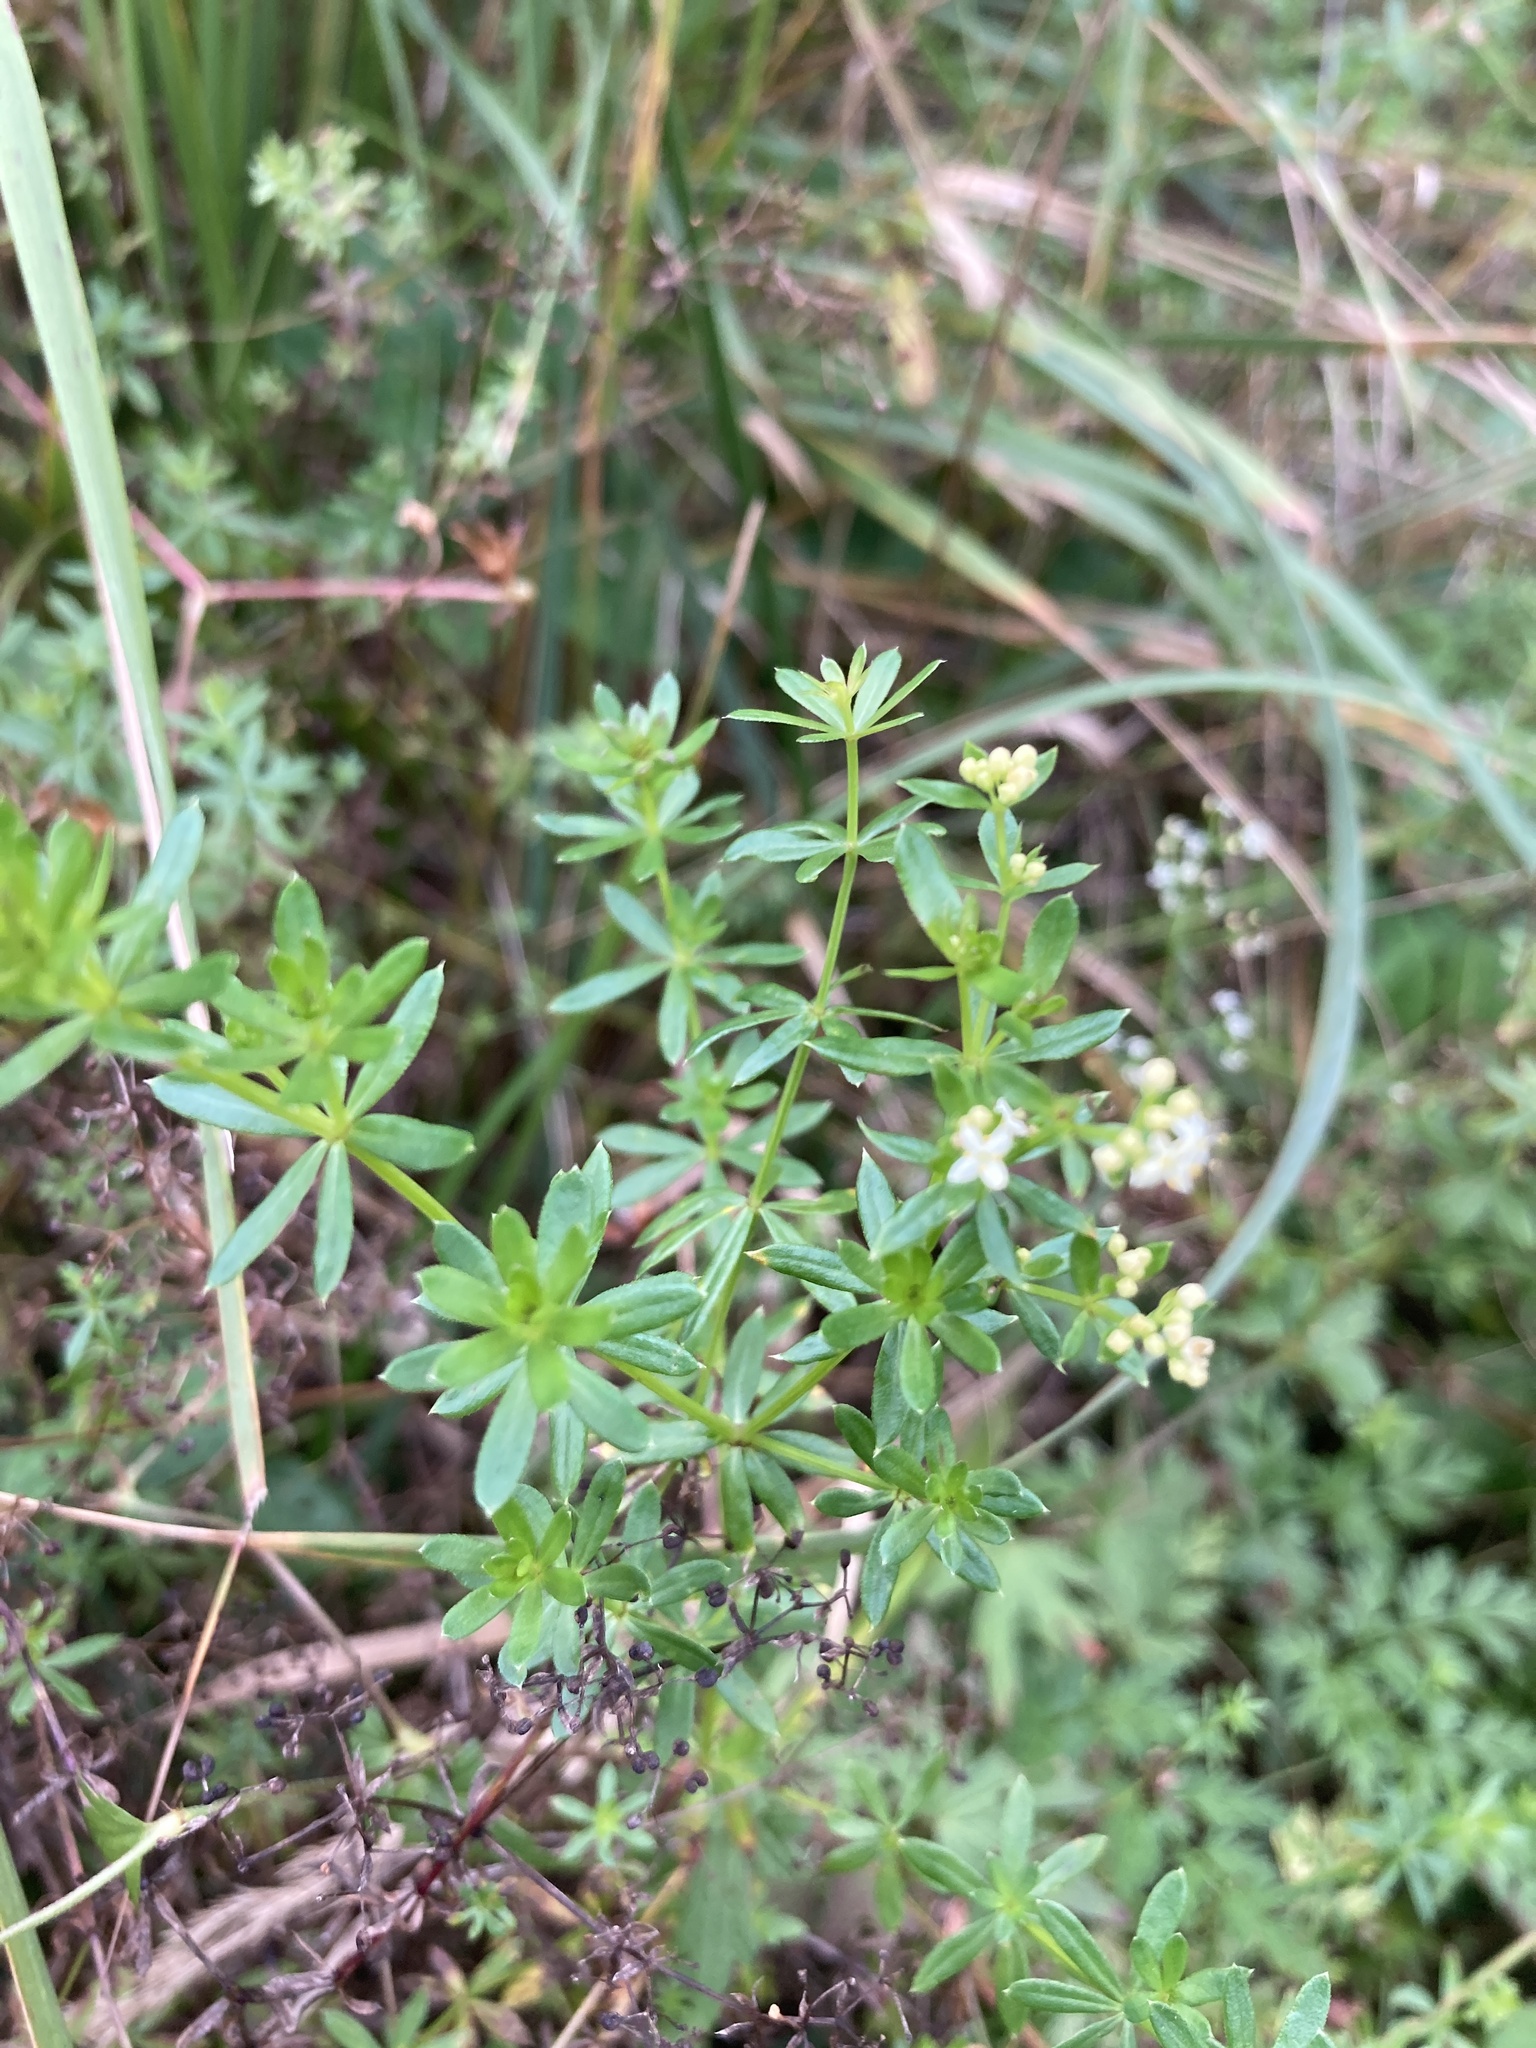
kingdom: Plantae
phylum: Tracheophyta
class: Magnoliopsida
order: Gentianales
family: Rubiaceae
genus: Galium
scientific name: Galium mollugo
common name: Hedge bedstraw
